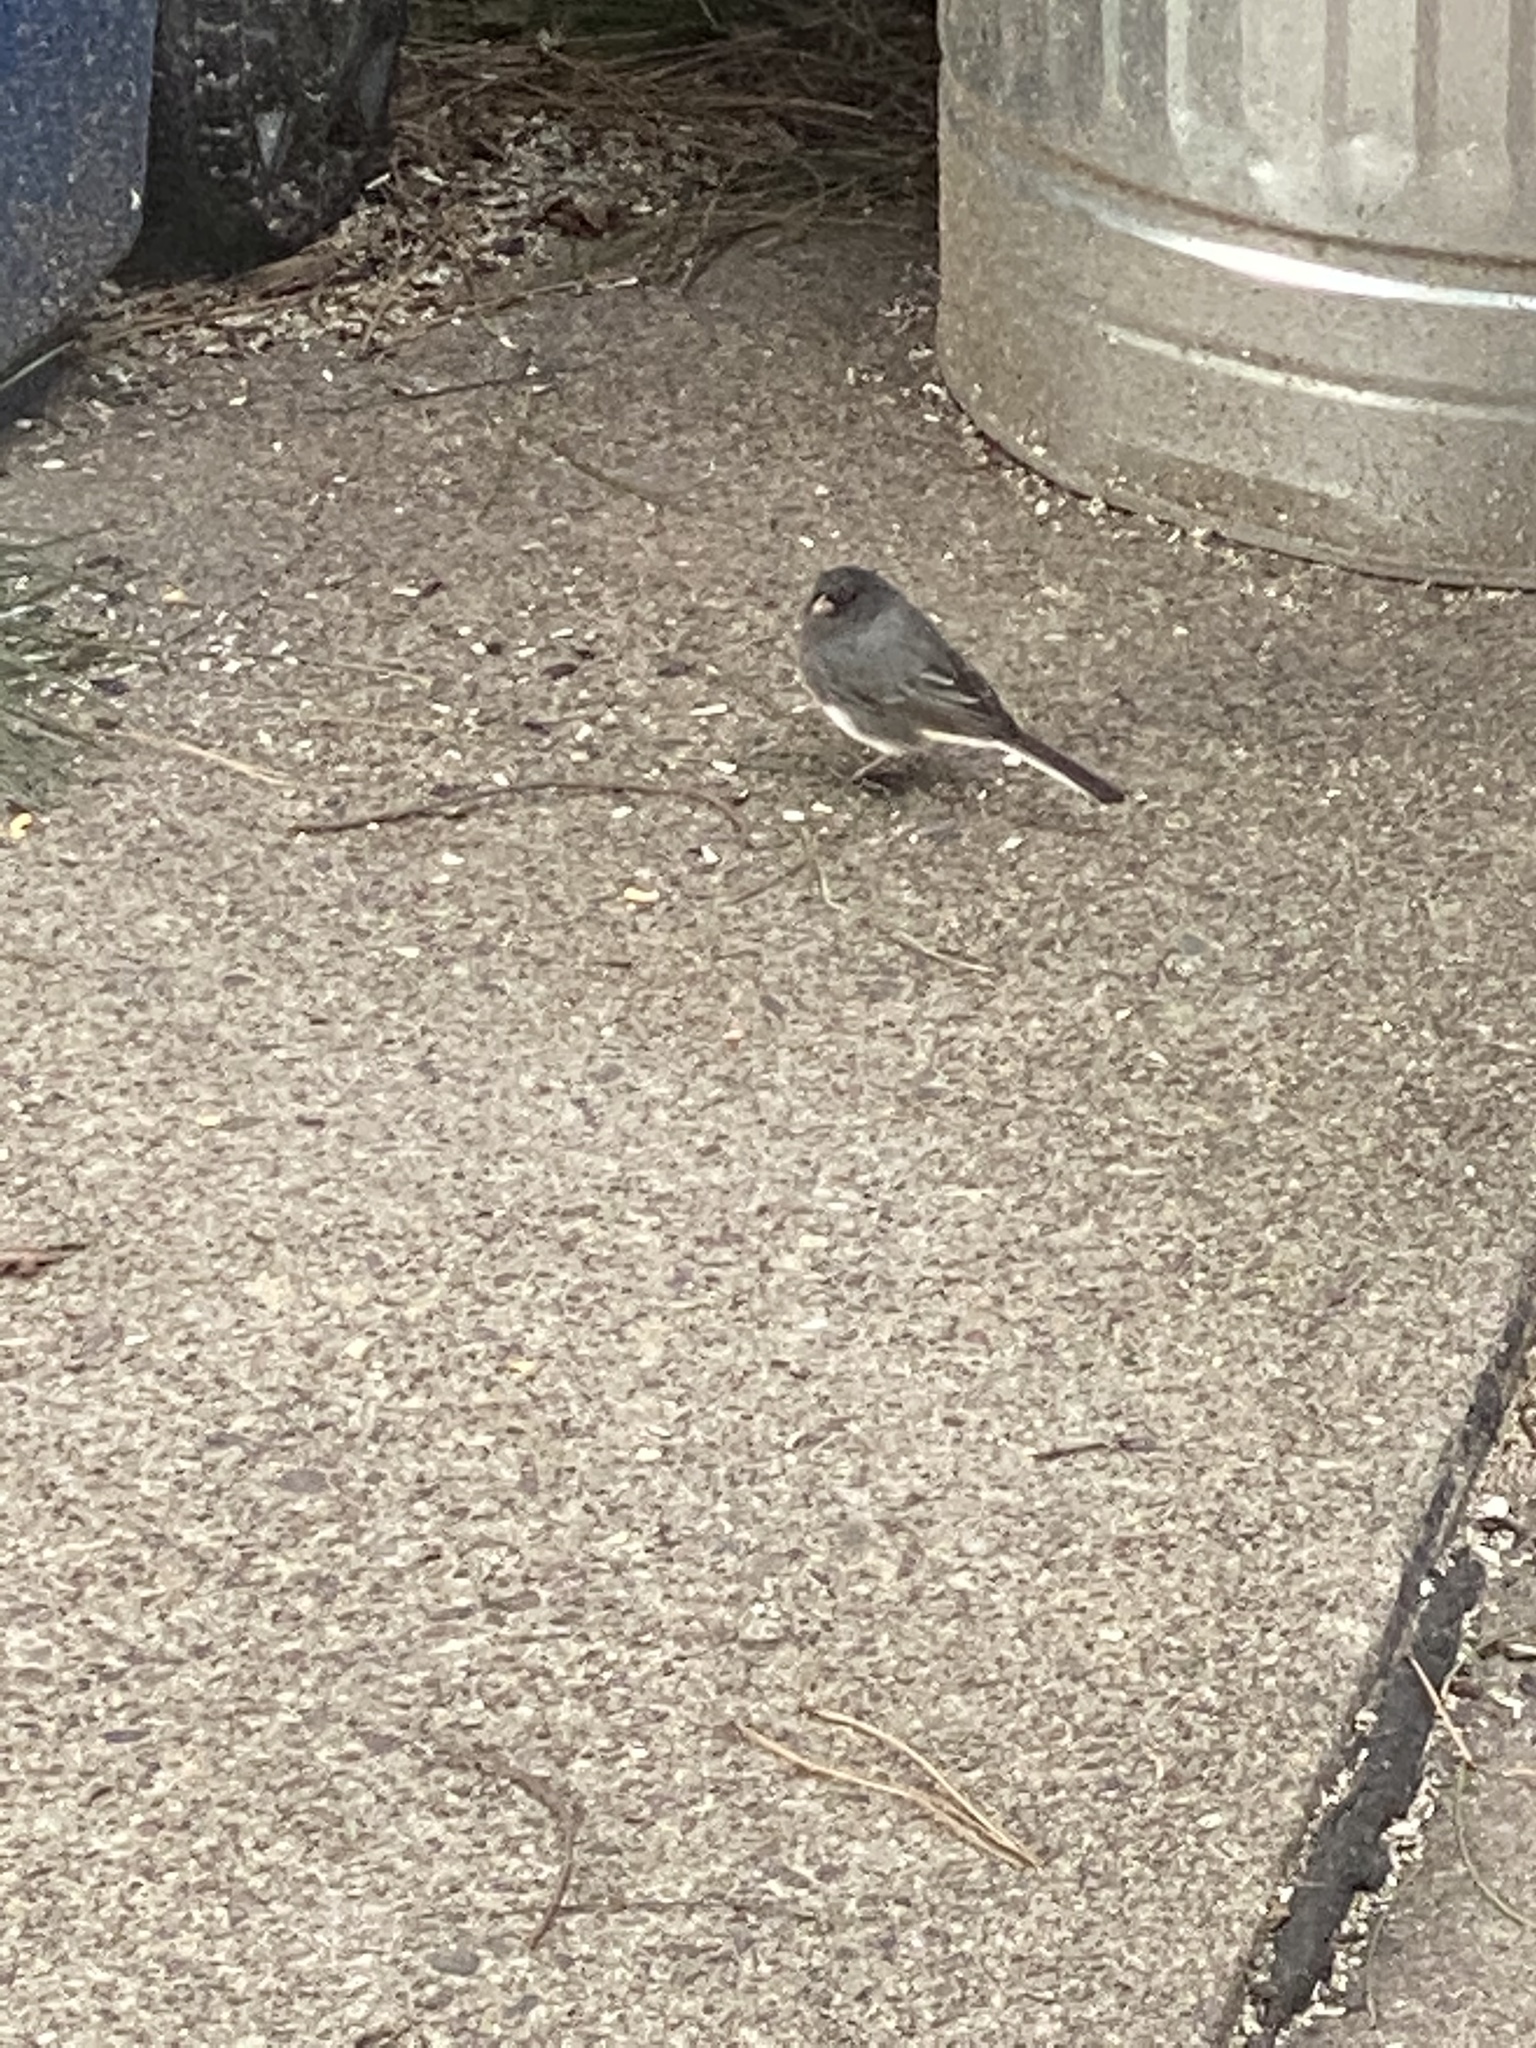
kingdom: Animalia
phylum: Chordata
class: Aves
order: Passeriformes
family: Passerellidae
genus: Junco
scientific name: Junco hyemalis
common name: Dark-eyed junco
